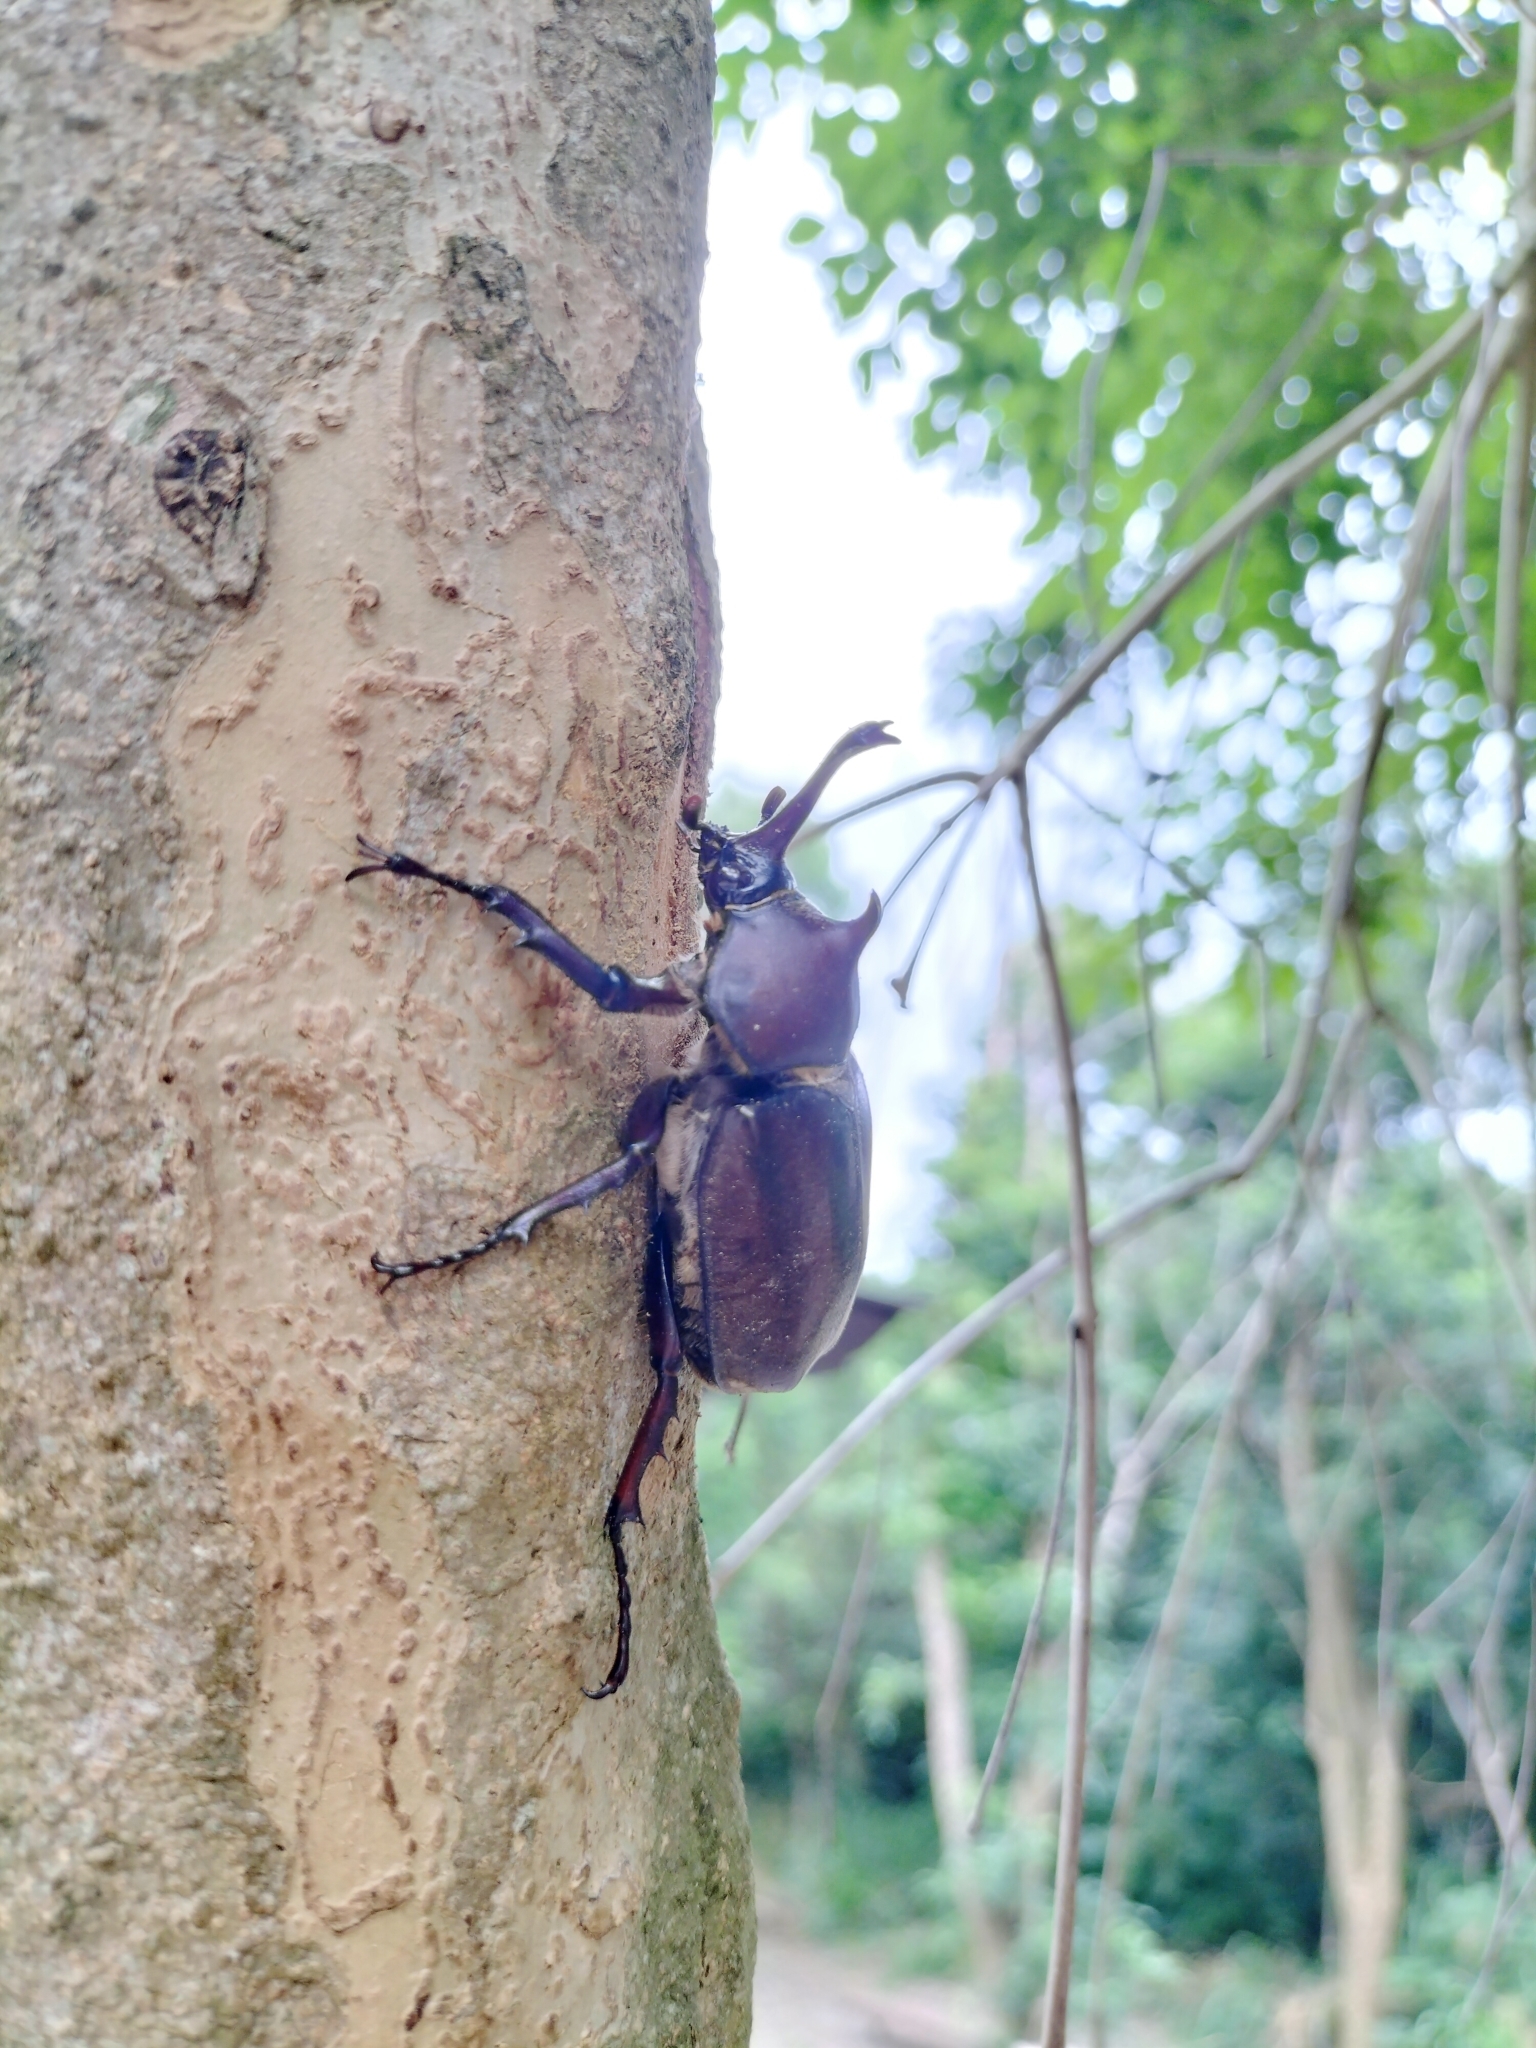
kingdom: Animalia
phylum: Arthropoda
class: Insecta
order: Coleoptera
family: Scarabaeidae
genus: Trypoxylus
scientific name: Trypoxylus dichotomus
